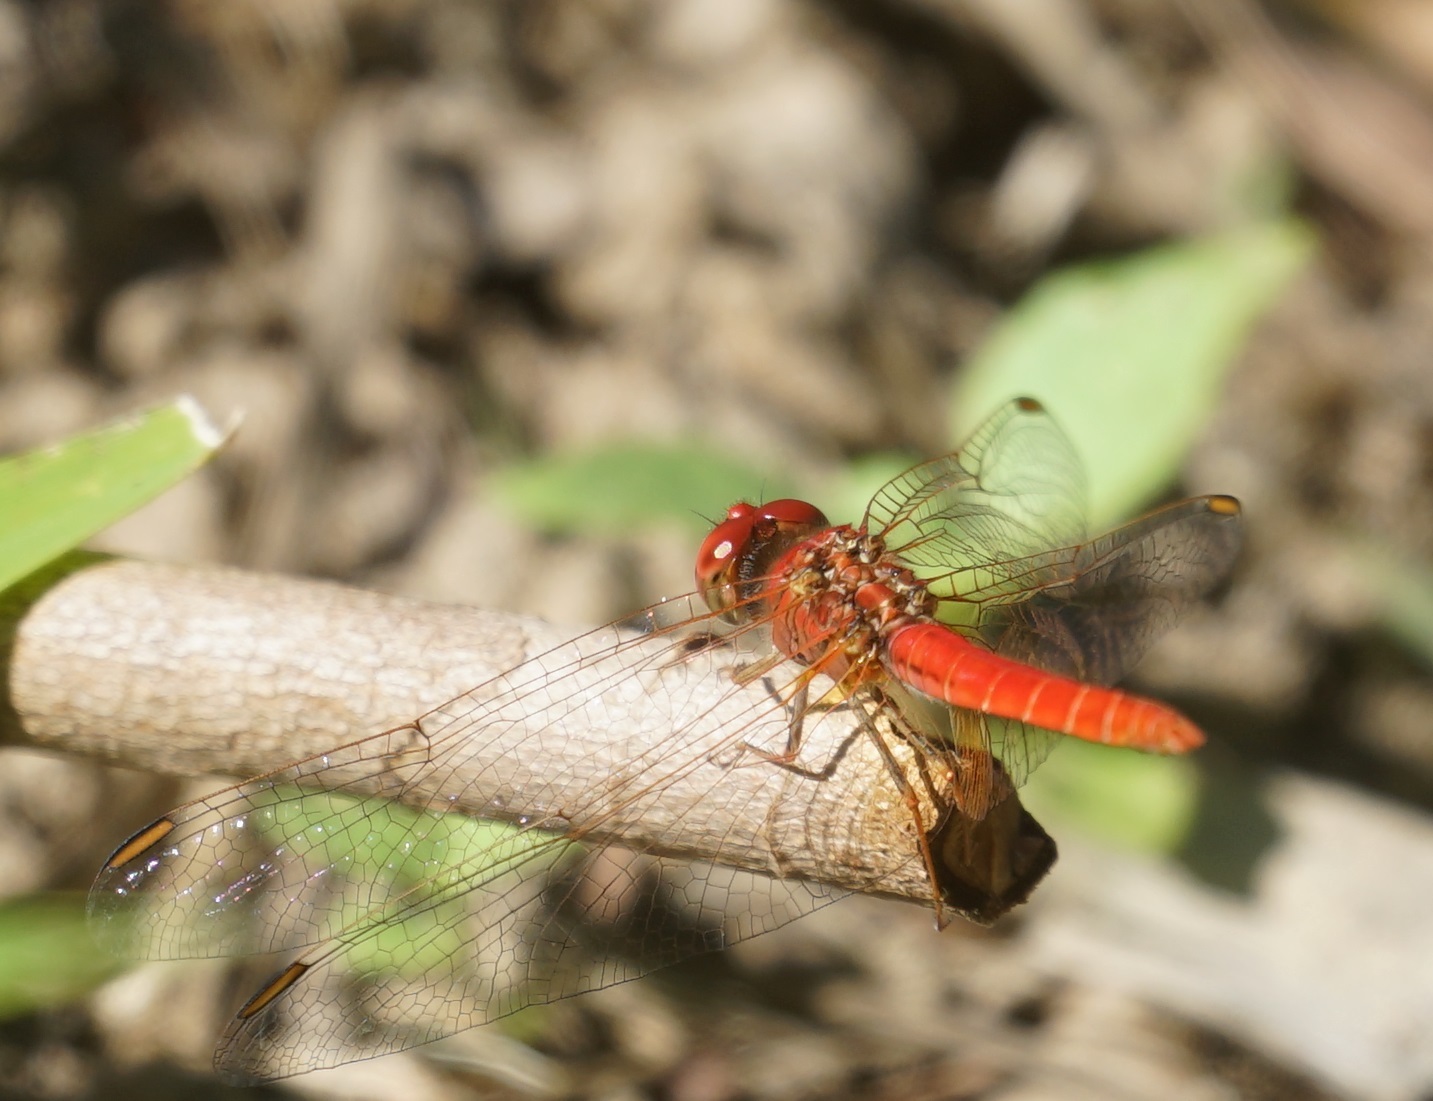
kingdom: Animalia
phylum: Arthropoda
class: Insecta
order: Odonata
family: Libellulidae
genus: Diplacodes
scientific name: Diplacodes haematodes
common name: Scarlet percher
